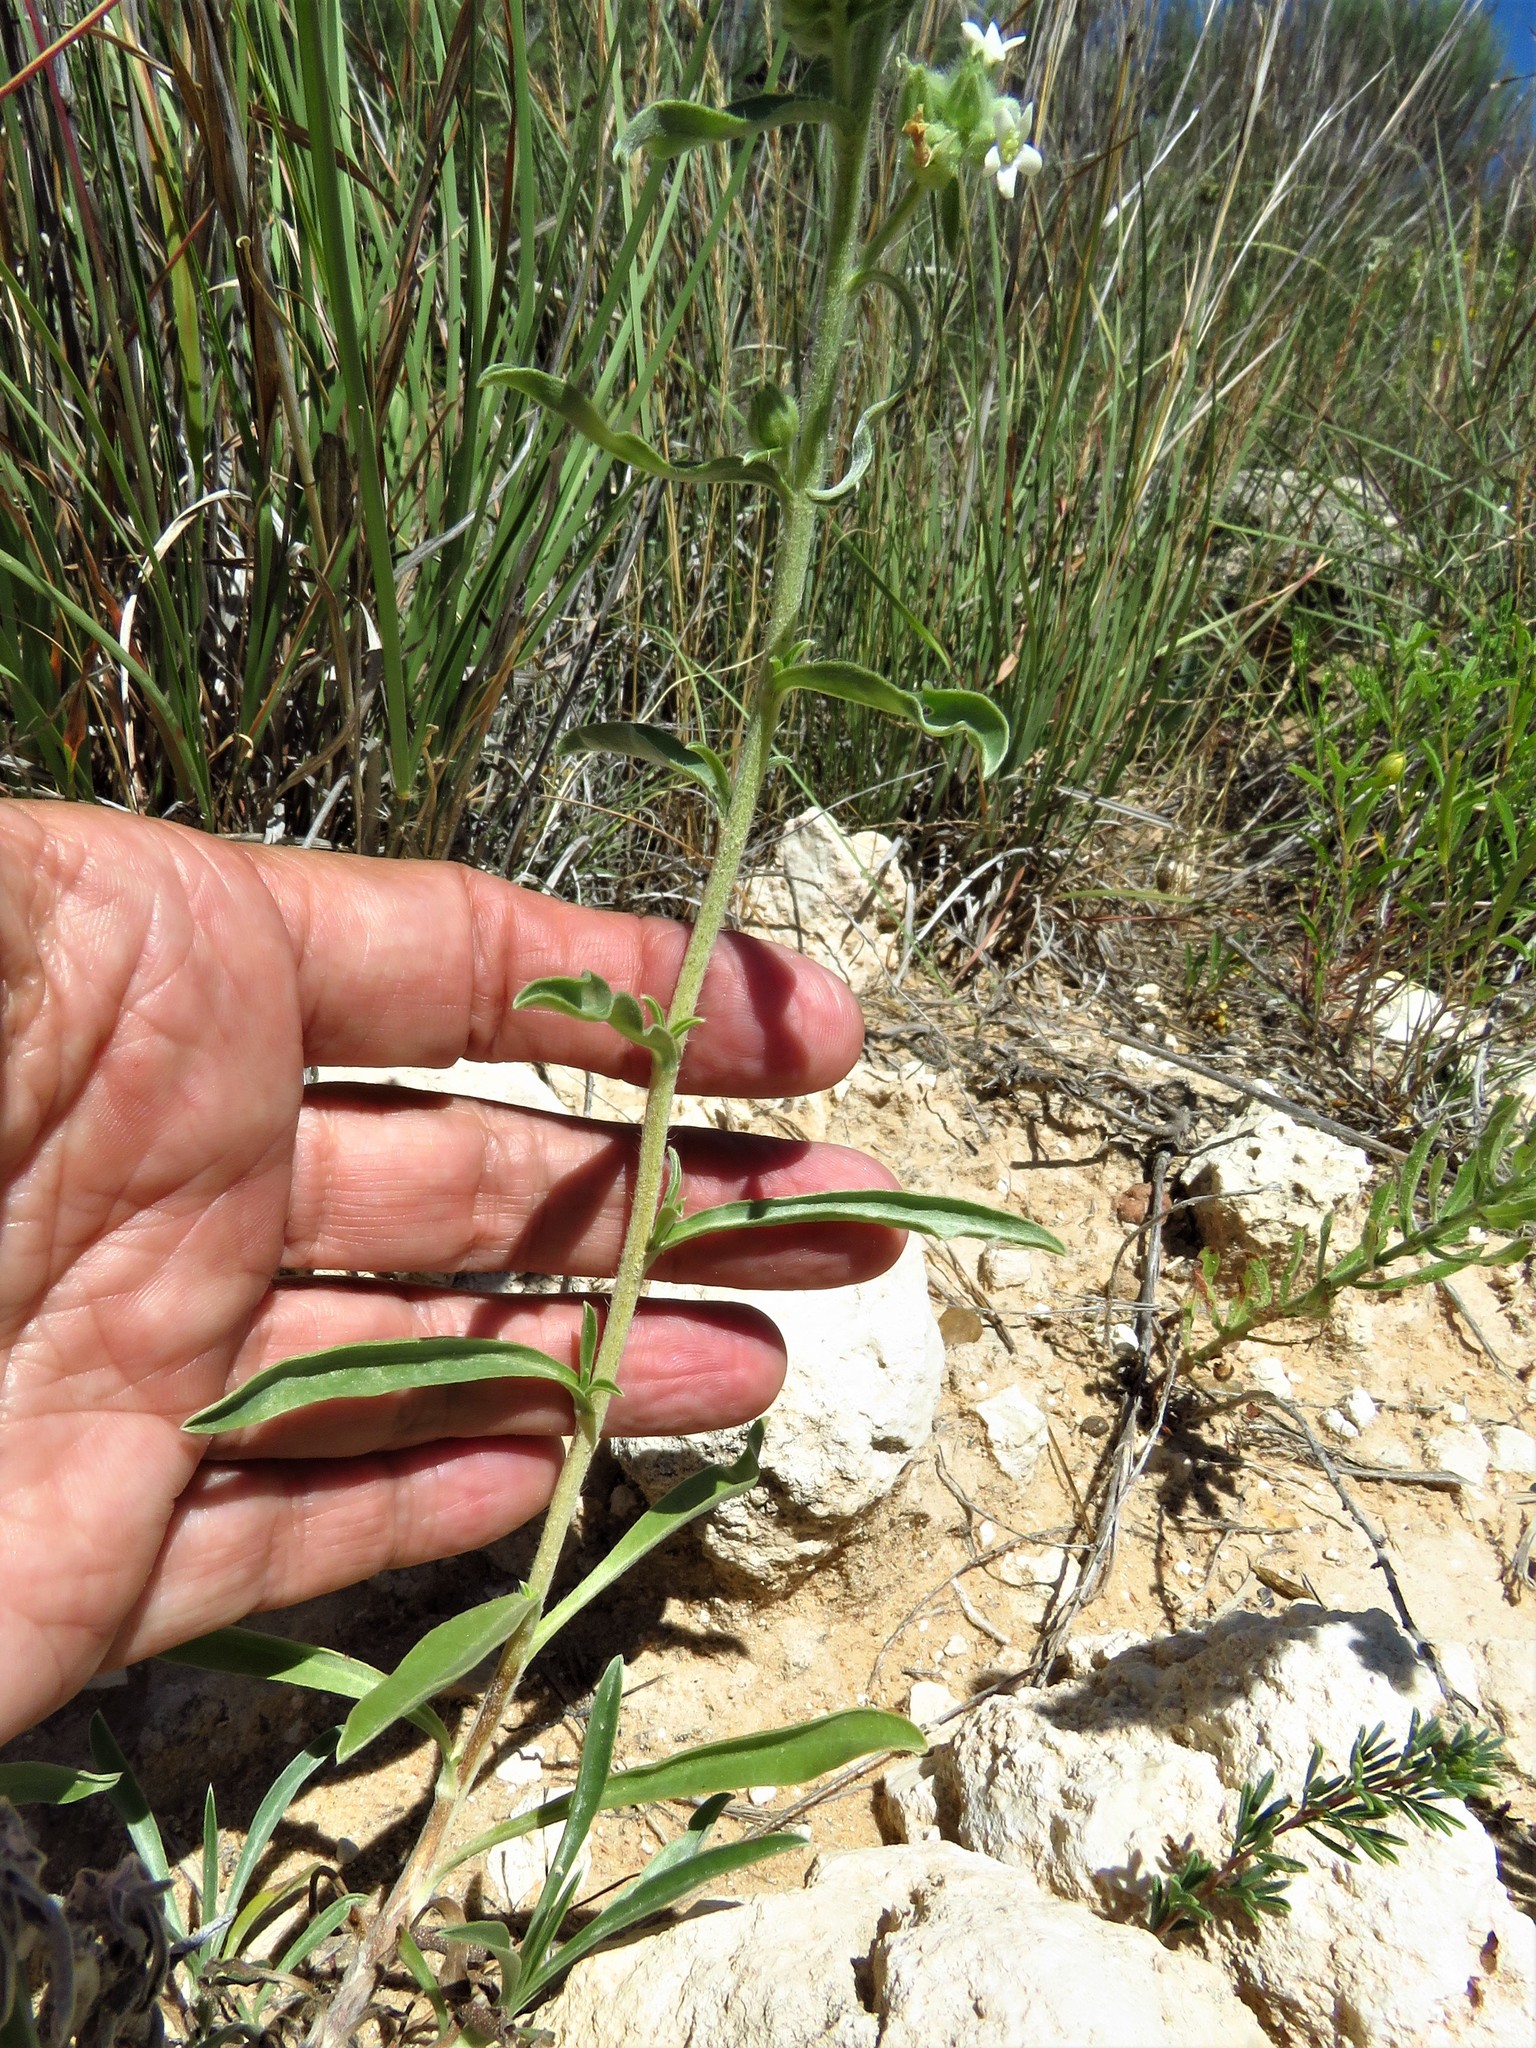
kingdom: Plantae
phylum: Tracheophyta
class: Magnoliopsida
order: Boraginales
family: Boraginaceae
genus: Oreocarya
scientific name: Oreocarya suffruticosa
